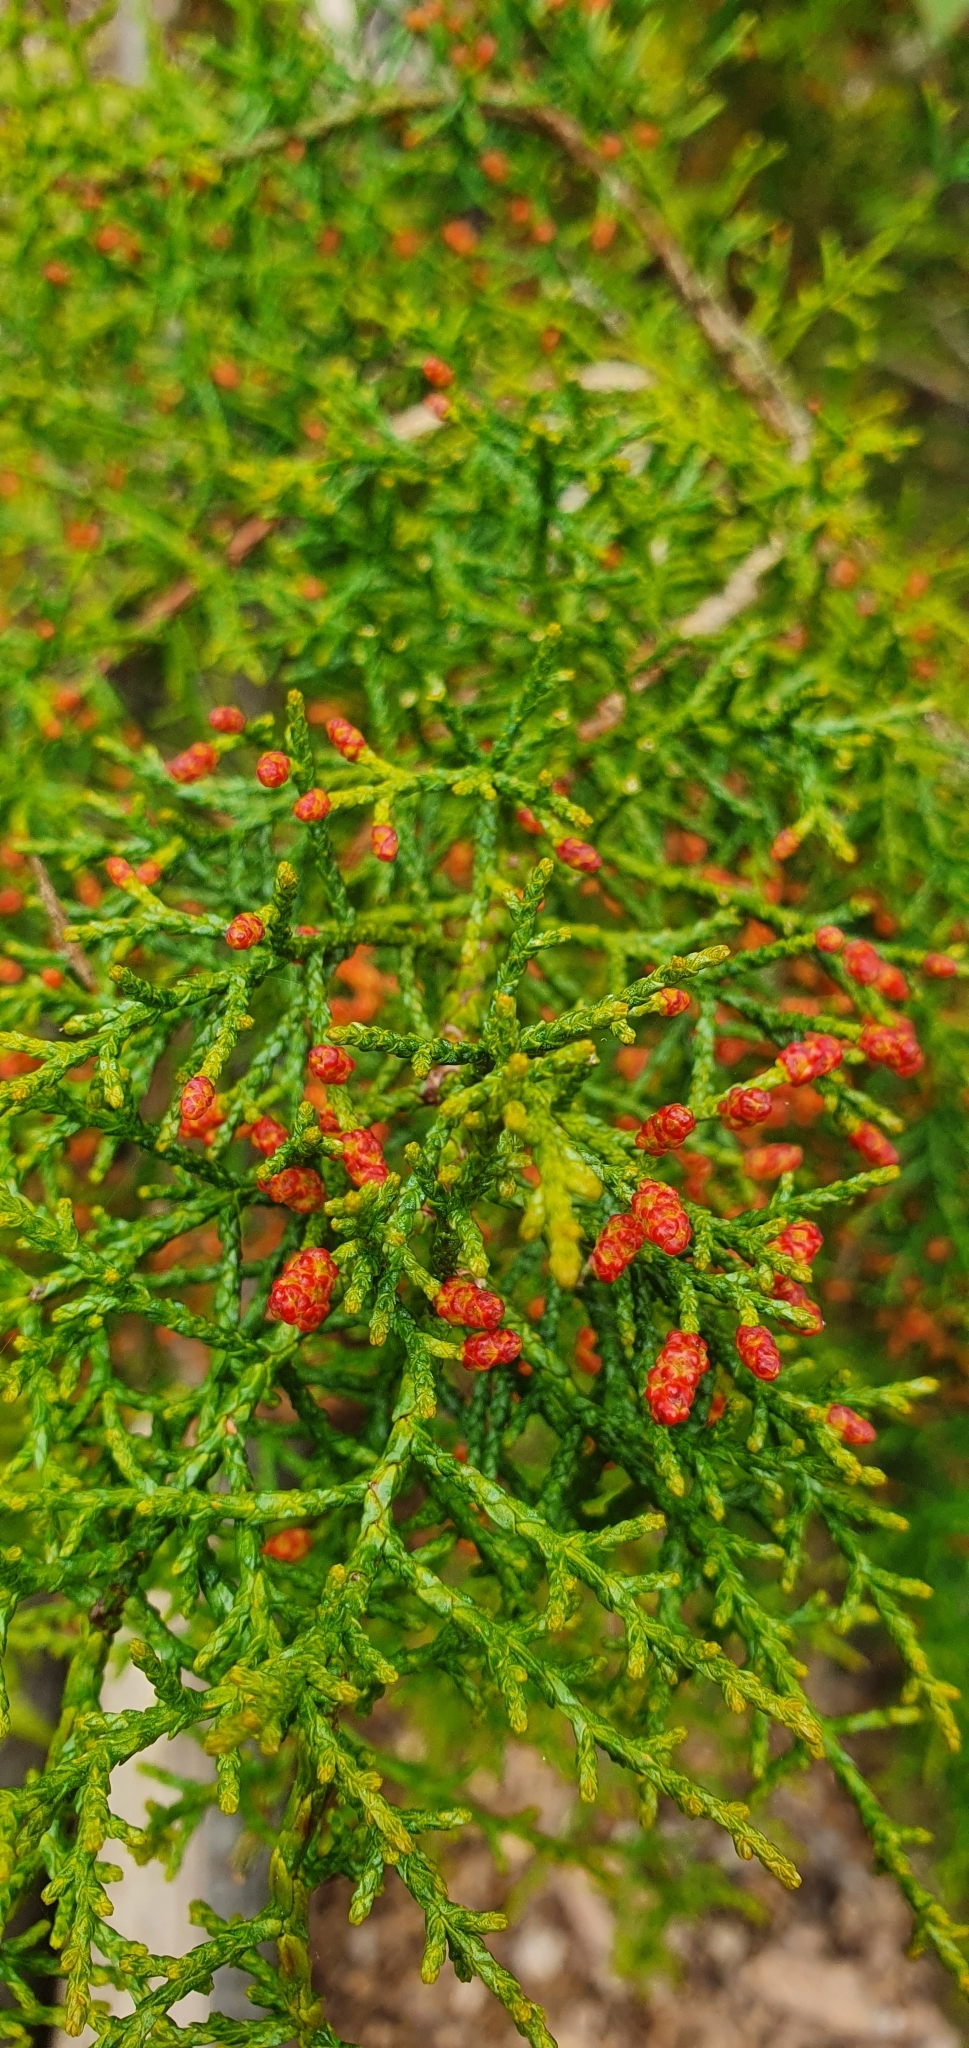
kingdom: Plantae
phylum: Tracheophyta
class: Pinopsida
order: Pinales
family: Podocarpaceae
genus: Lagarostrobos
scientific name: Lagarostrobos franklinii
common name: Huon pine
